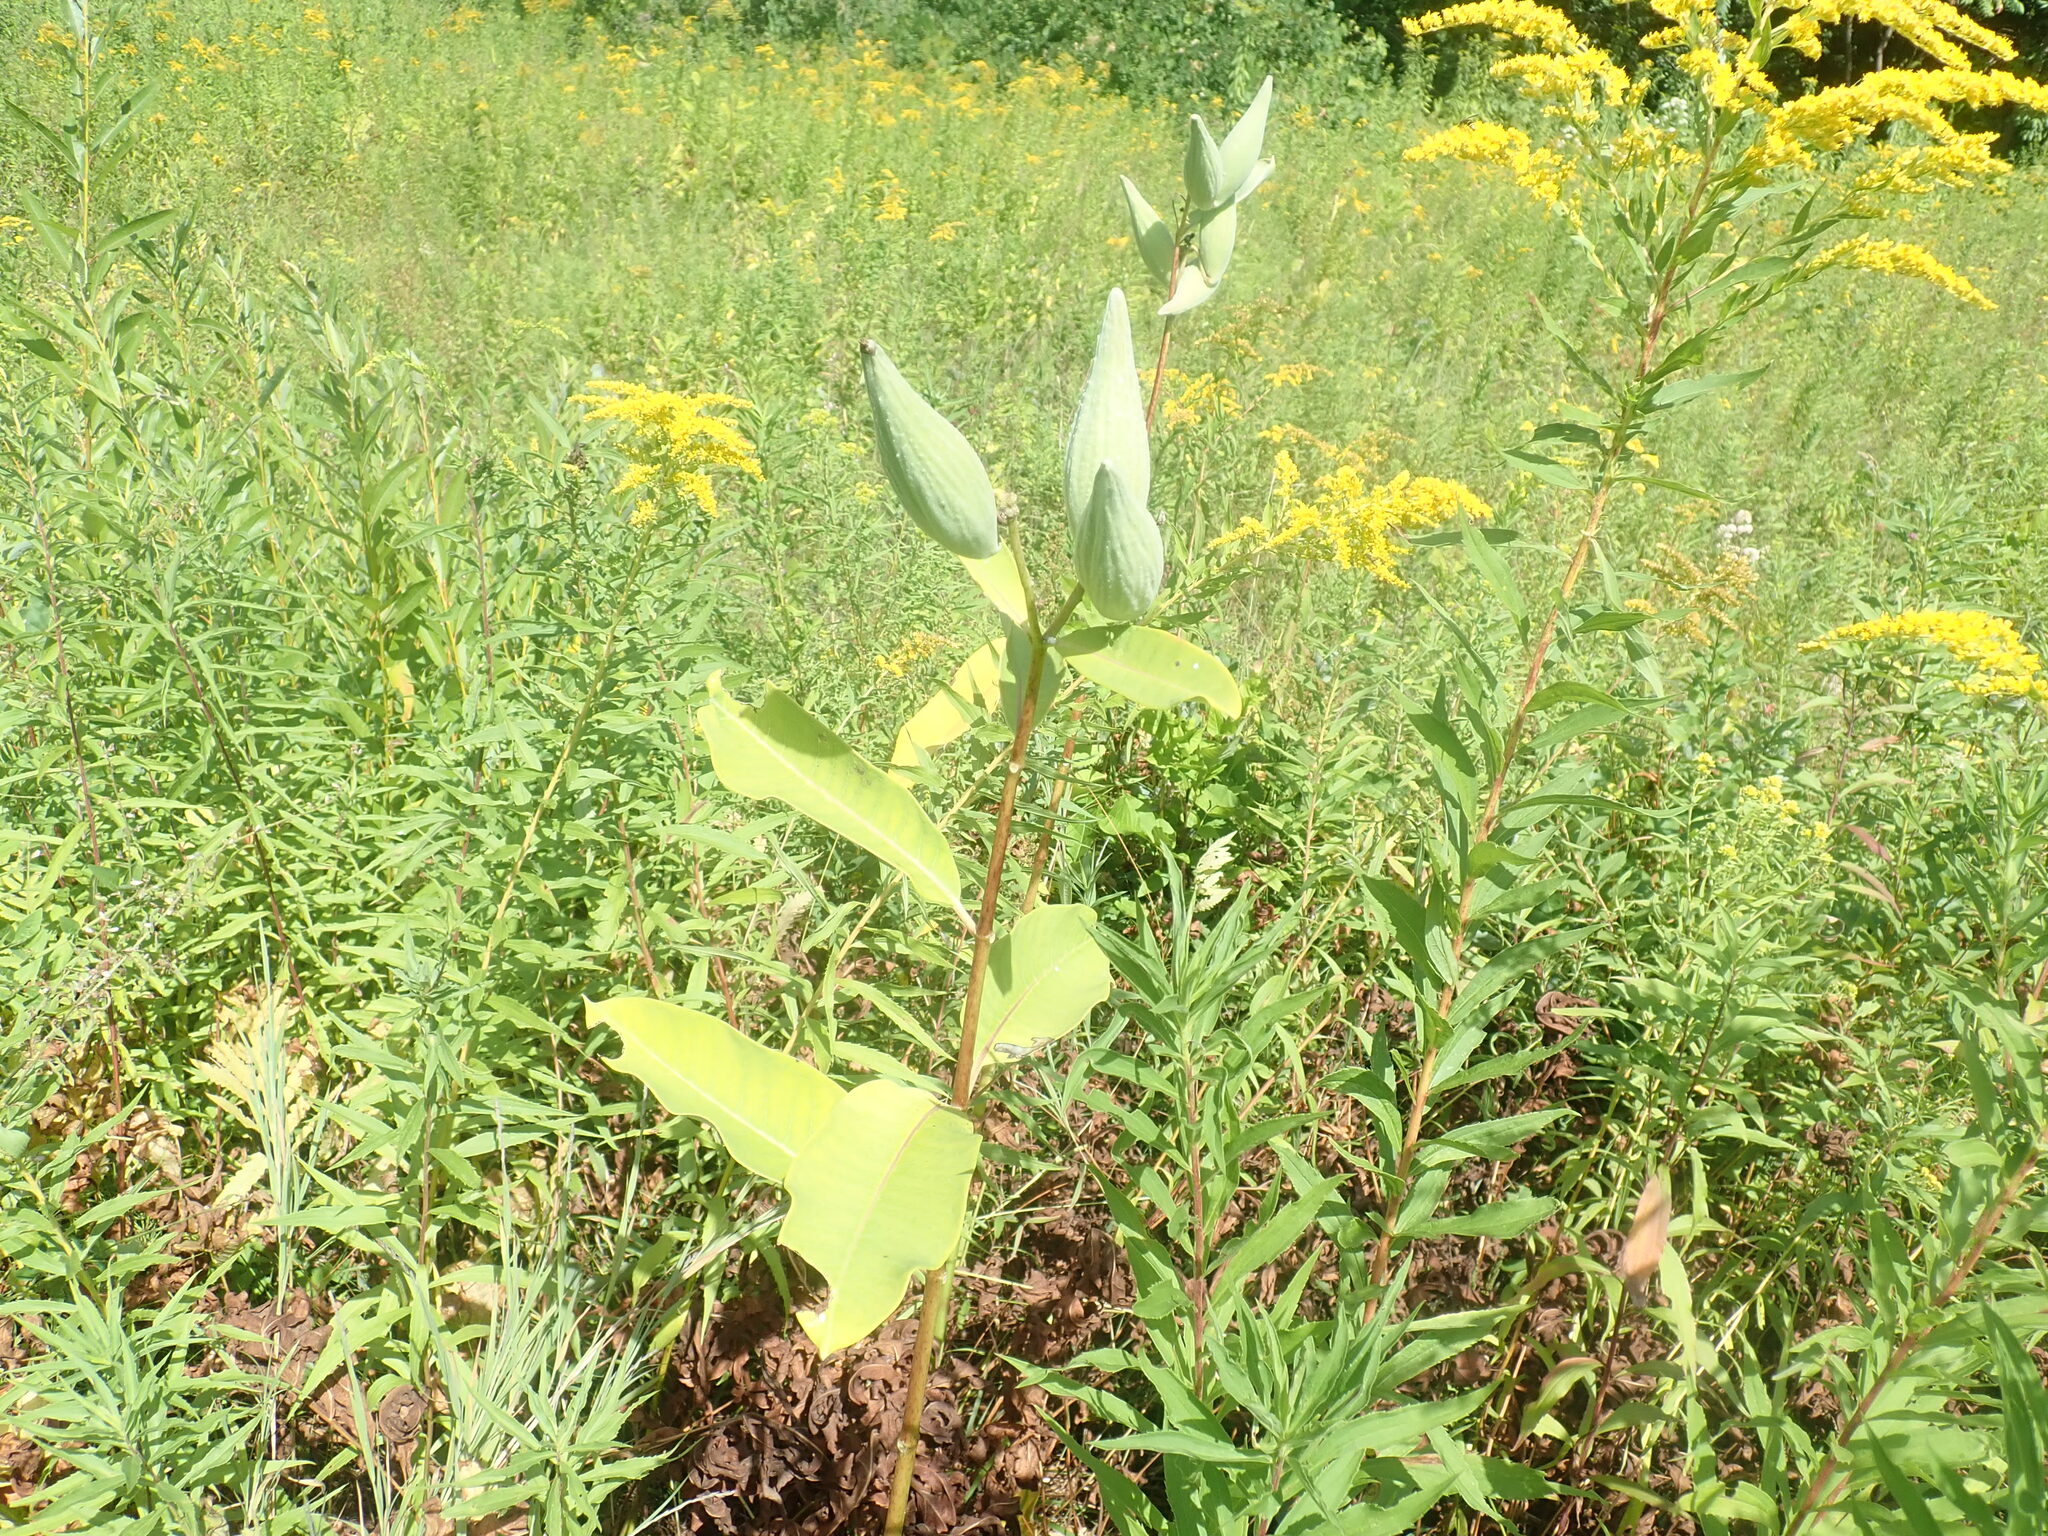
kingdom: Plantae
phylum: Tracheophyta
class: Magnoliopsida
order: Gentianales
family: Apocynaceae
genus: Asclepias
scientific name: Asclepias syriaca
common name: Common milkweed
